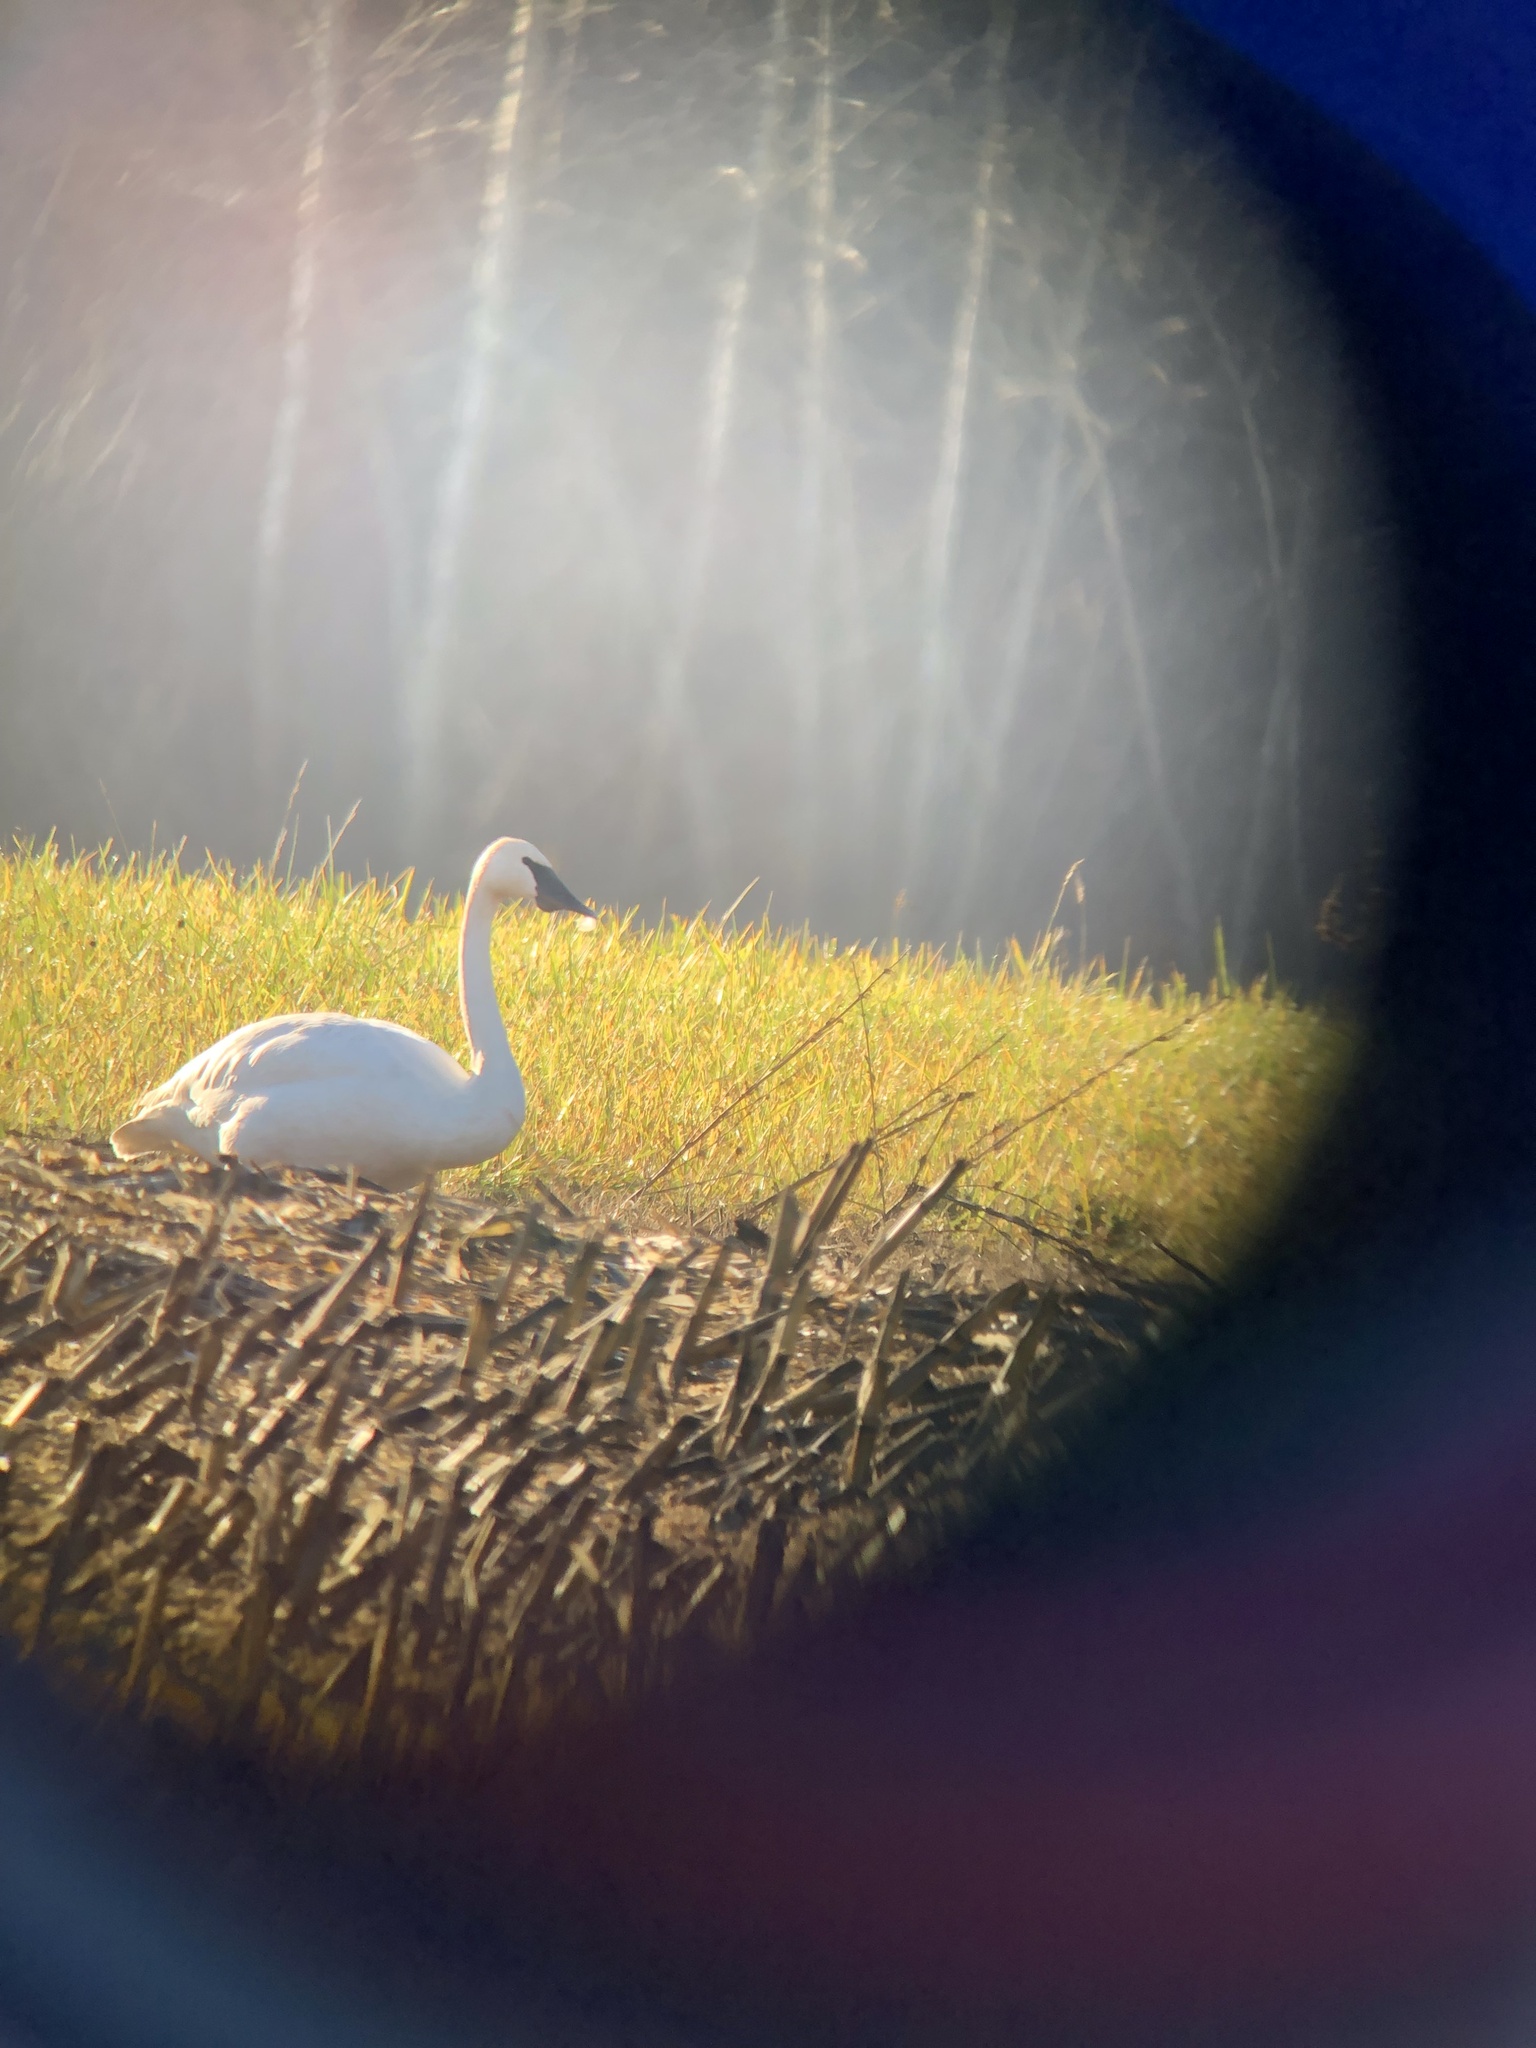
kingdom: Animalia
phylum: Chordata
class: Aves
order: Anseriformes
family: Anatidae
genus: Cygnus
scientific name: Cygnus buccinator
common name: Trumpeter swan
